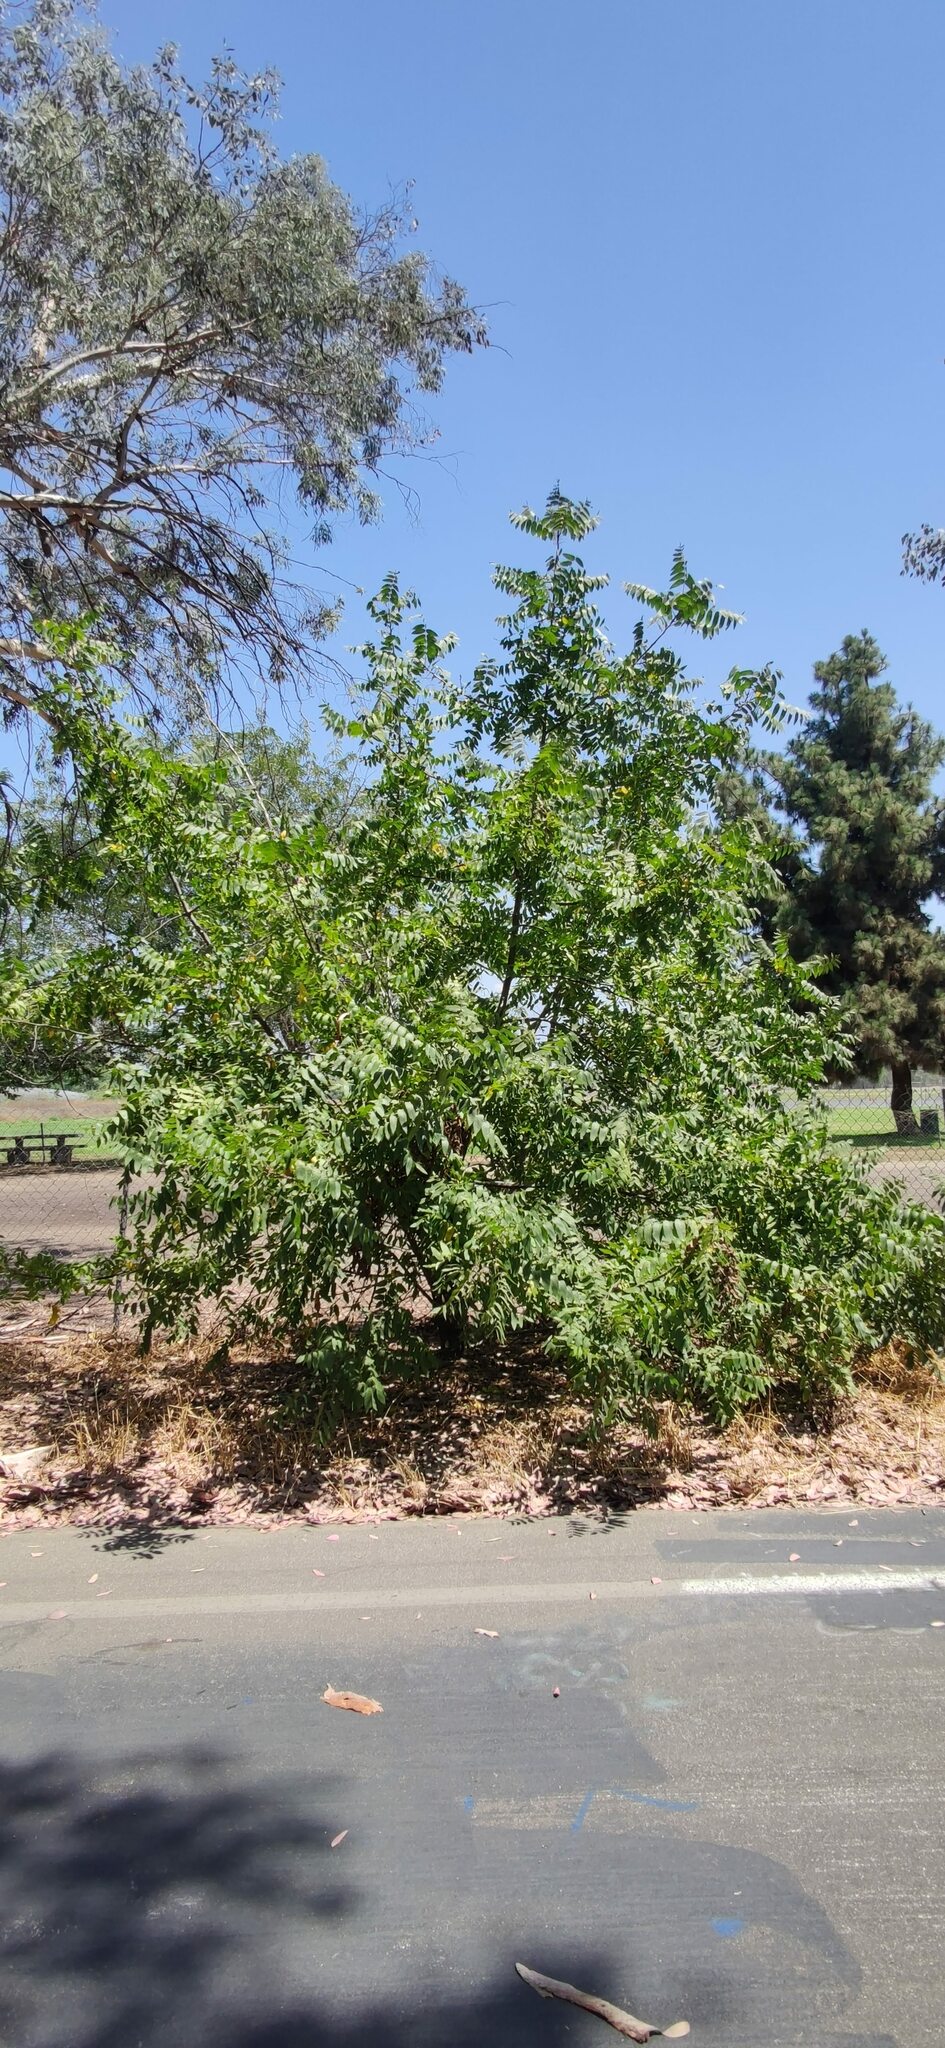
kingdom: Plantae
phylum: Tracheophyta
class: Magnoliopsida
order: Fagales
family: Juglandaceae
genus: Juglans
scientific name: Juglans californica
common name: Southern california black walnut
